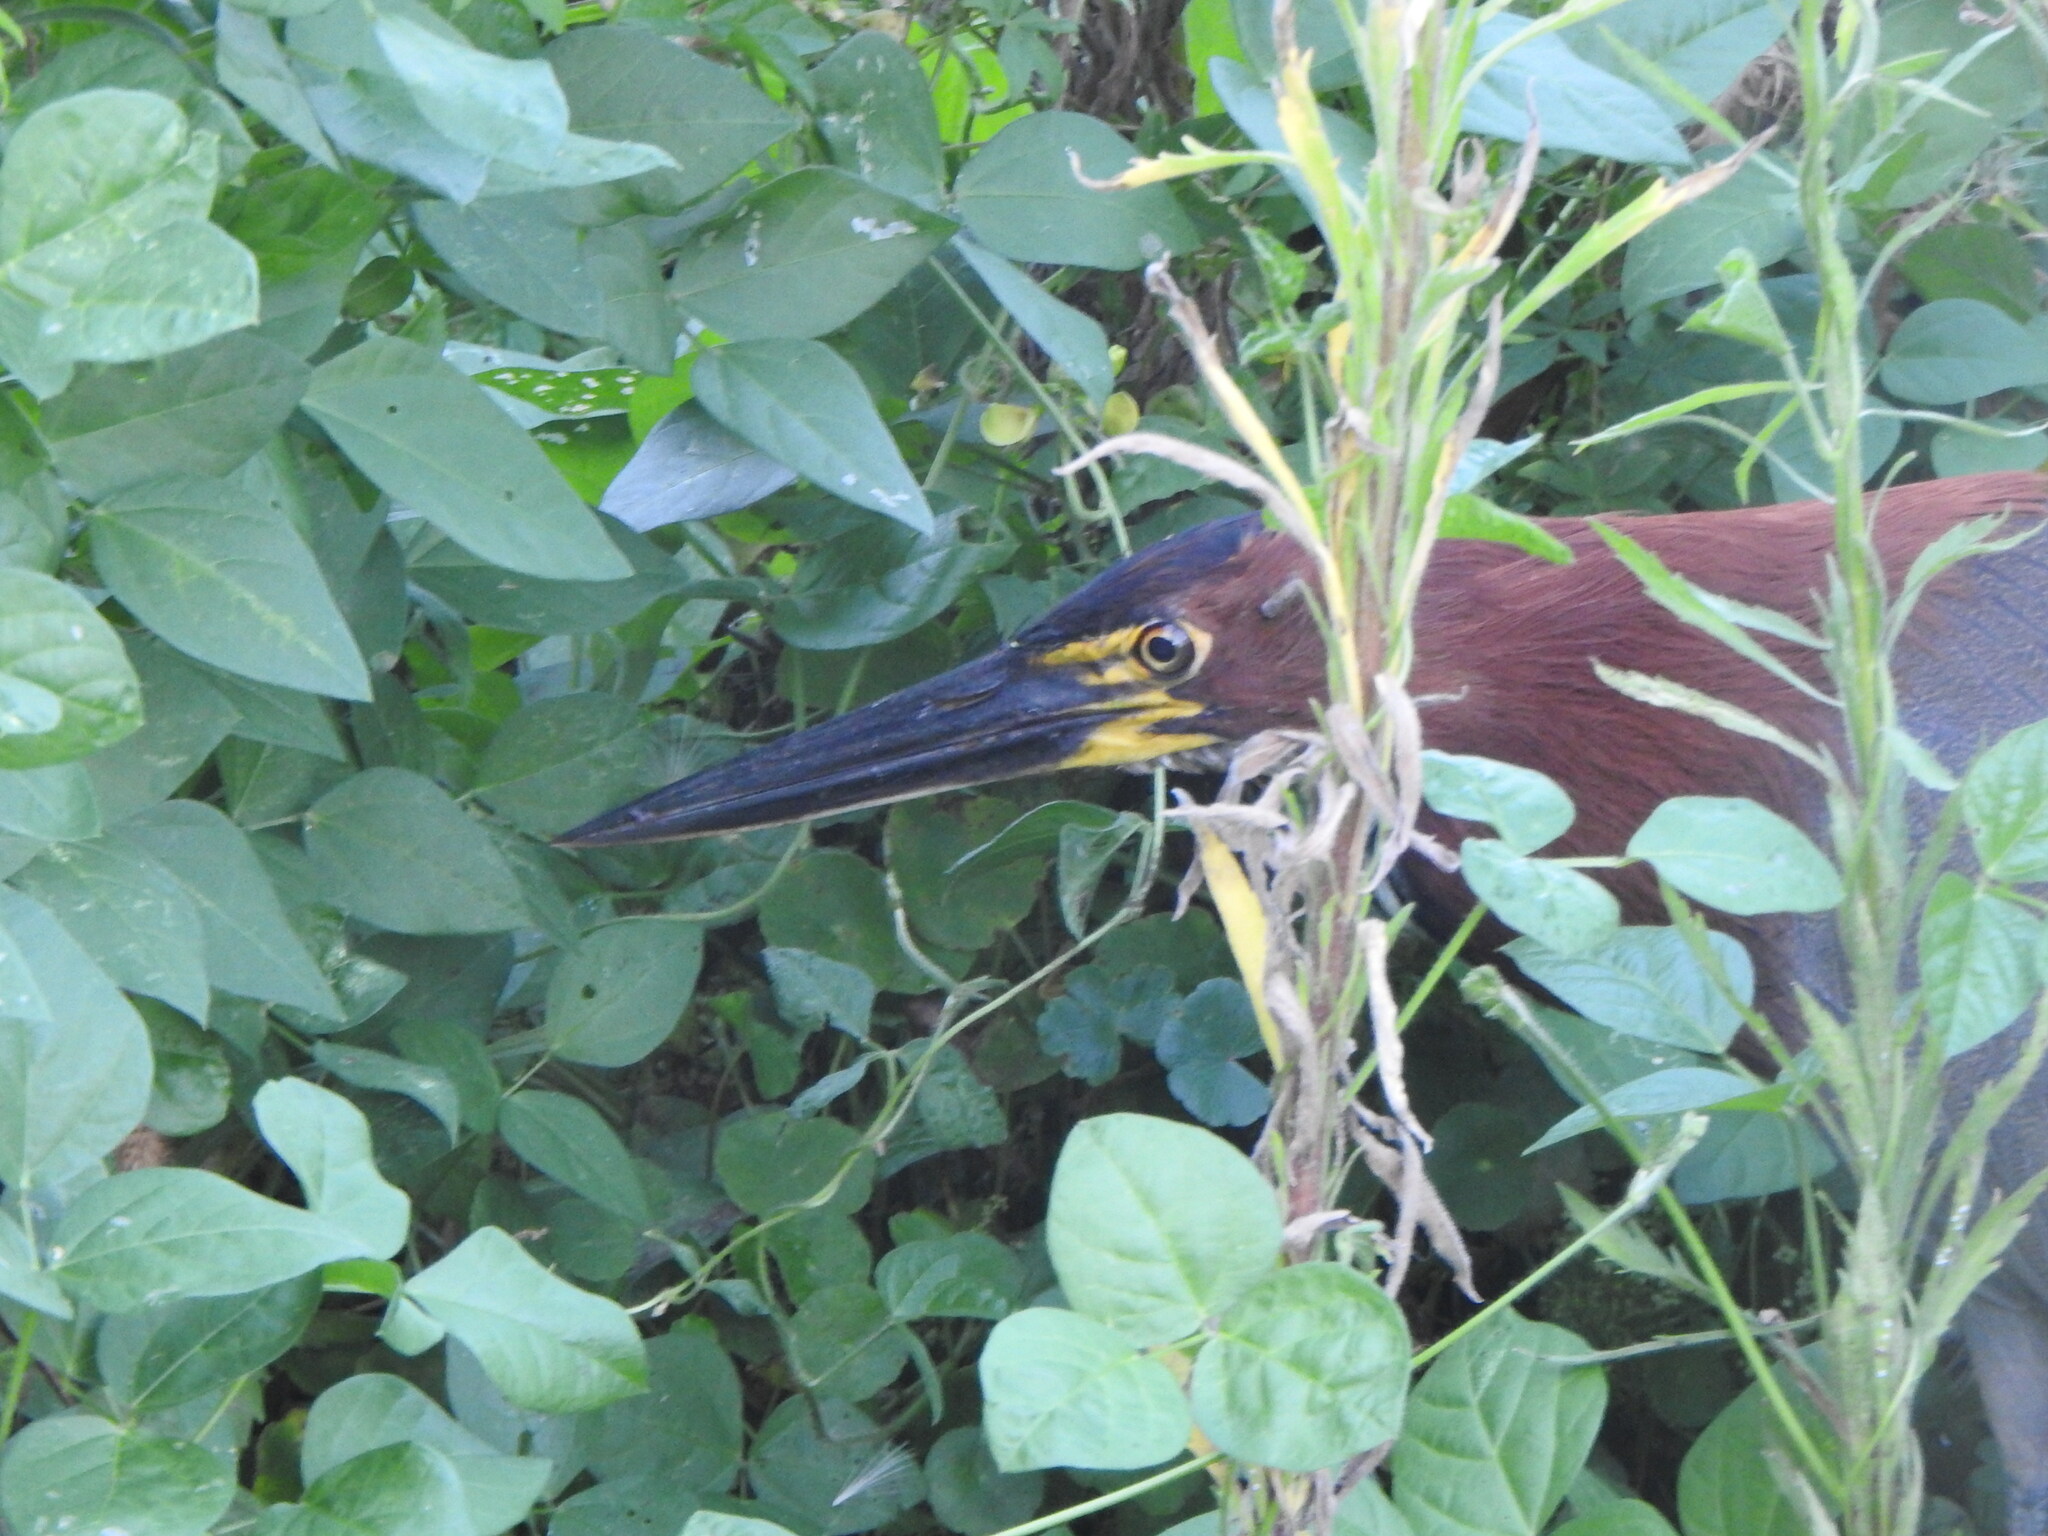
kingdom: Animalia
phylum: Chordata
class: Aves
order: Pelecaniformes
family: Ardeidae
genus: Tigrisoma
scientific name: Tigrisoma lineatum
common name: Rufescent tiger-heron
